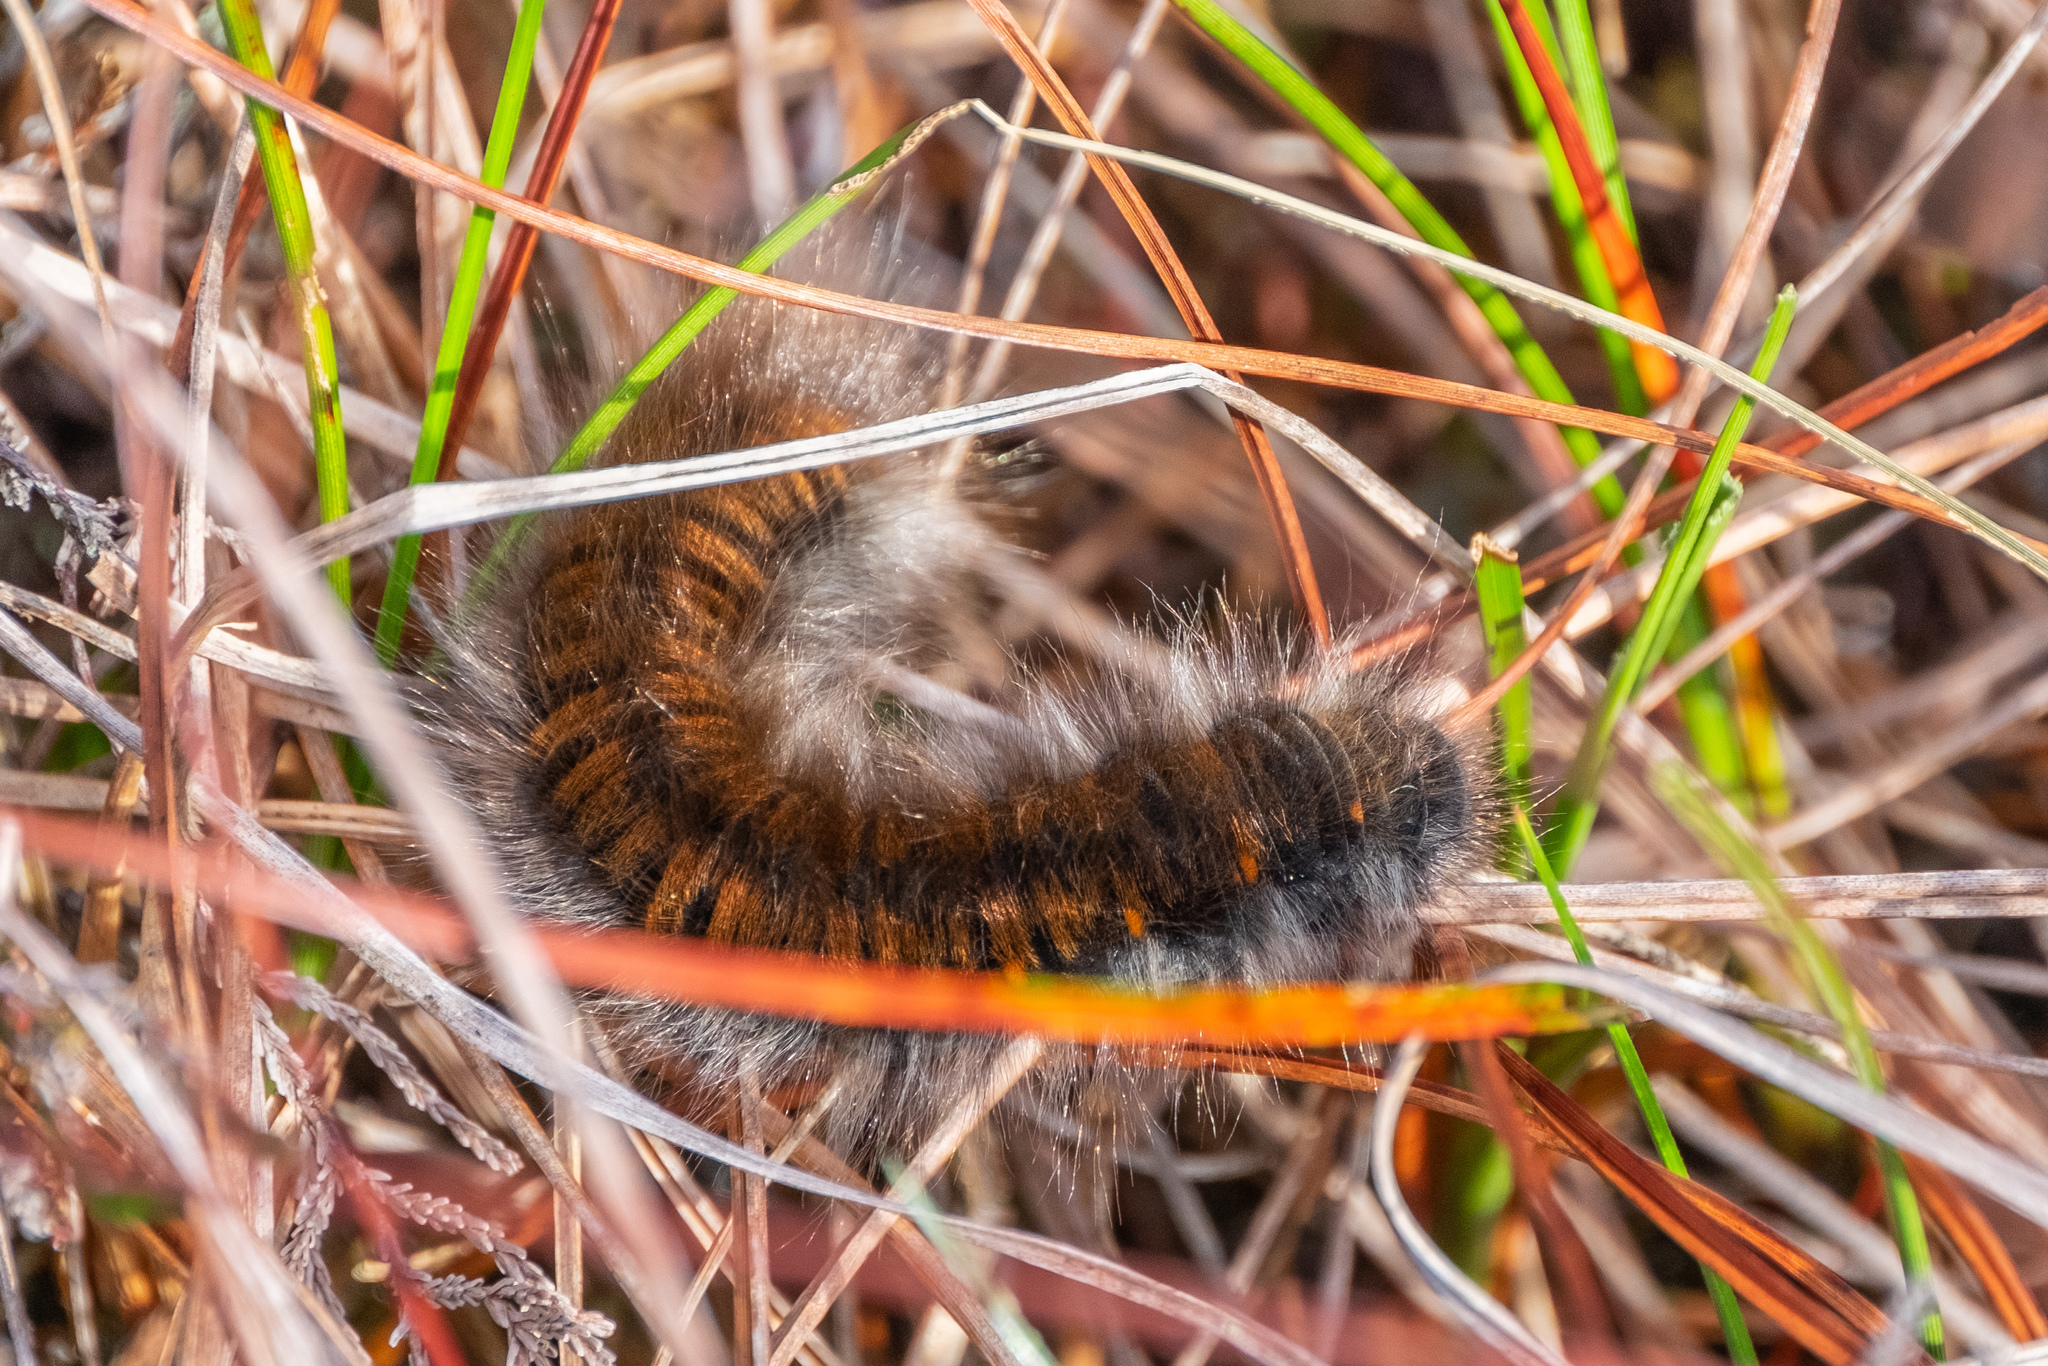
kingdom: Animalia
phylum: Arthropoda
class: Insecta
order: Lepidoptera
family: Lasiocampidae
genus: Macrothylacia
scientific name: Macrothylacia rubi
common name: Fox moth
